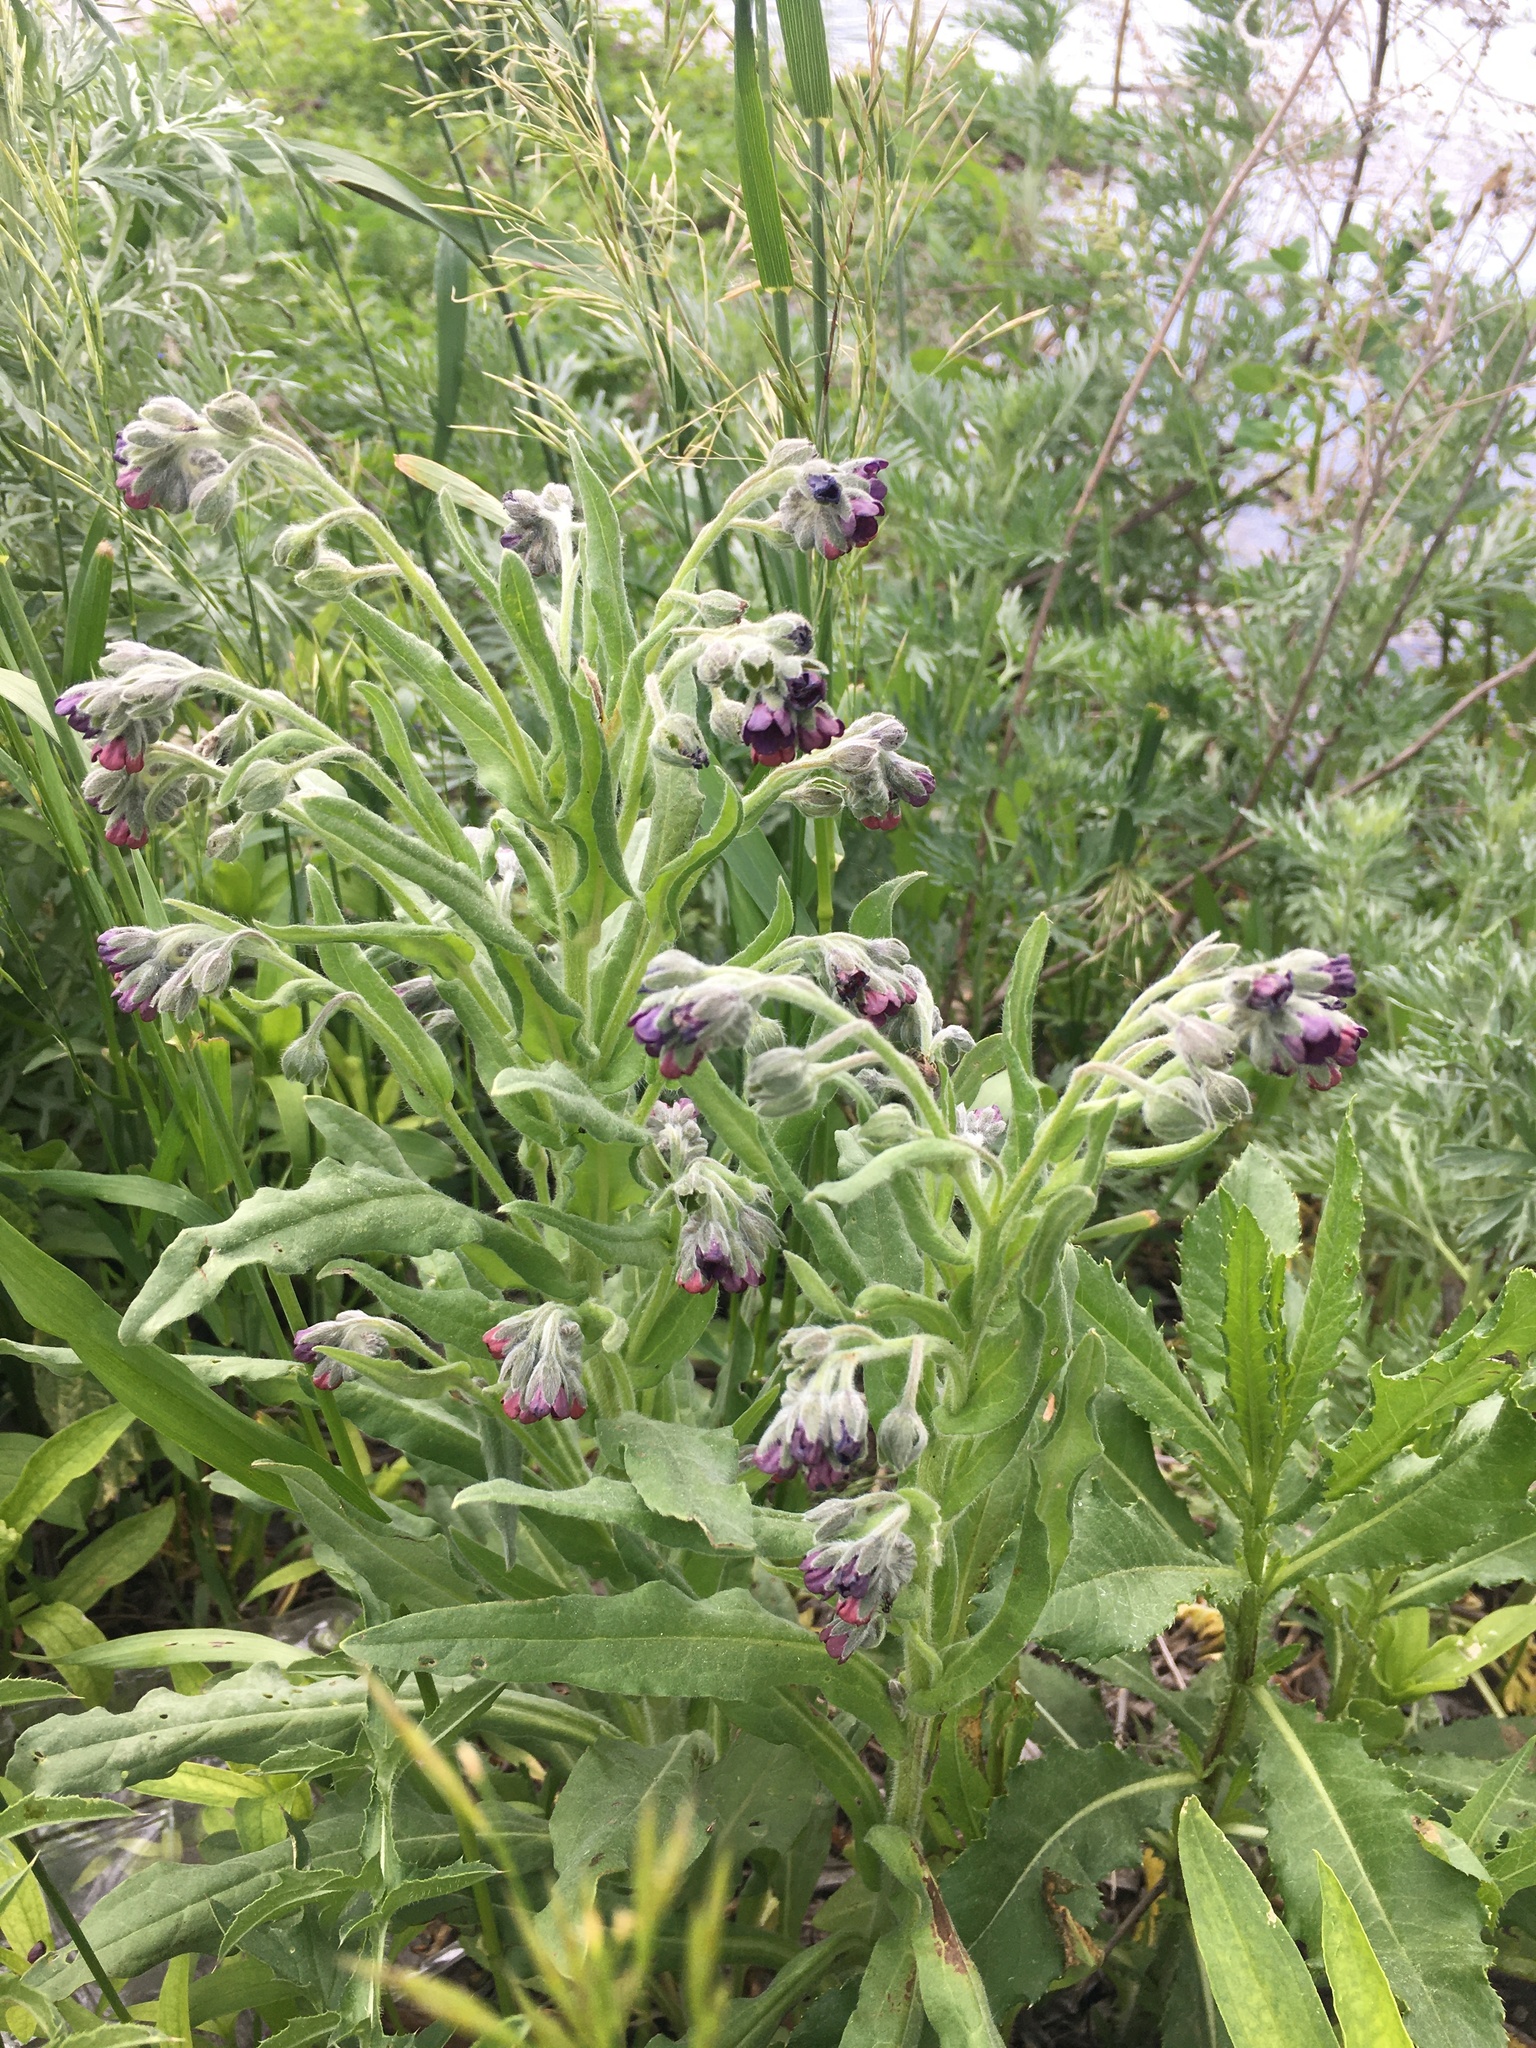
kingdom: Plantae
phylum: Tracheophyta
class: Magnoliopsida
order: Boraginales
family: Boraginaceae
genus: Cynoglossum
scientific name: Cynoglossum officinale
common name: Hound's-tongue
